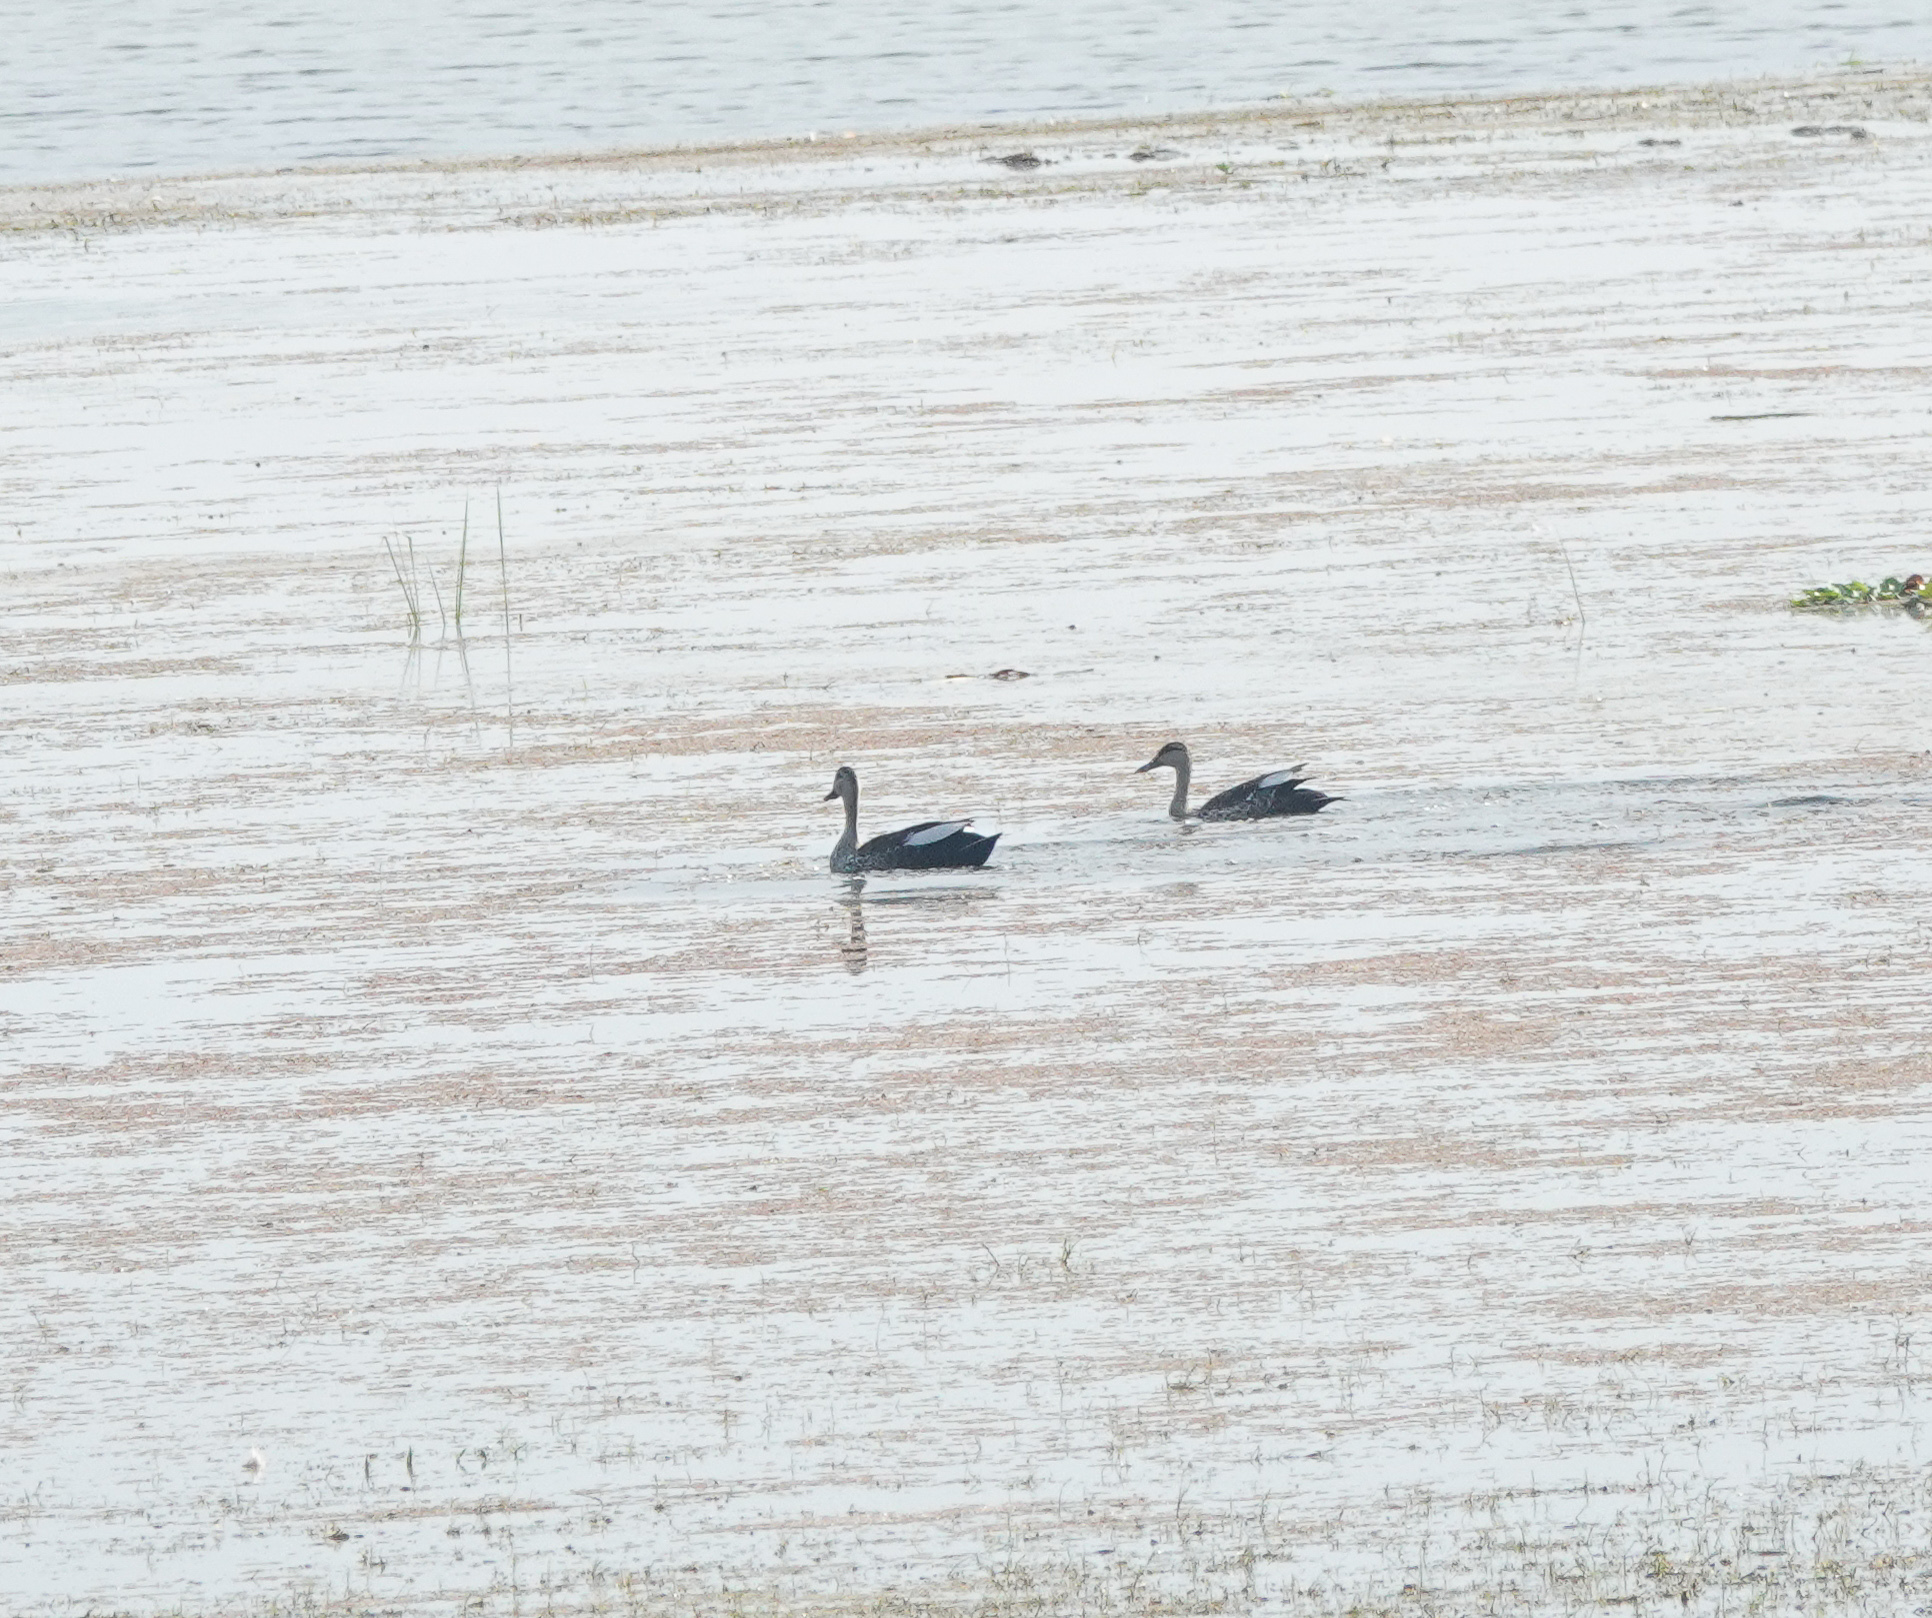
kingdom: Animalia
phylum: Chordata
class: Aves
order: Anseriformes
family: Anatidae
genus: Anas
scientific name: Anas poecilorhyncha
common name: Indian spot-billed duck
